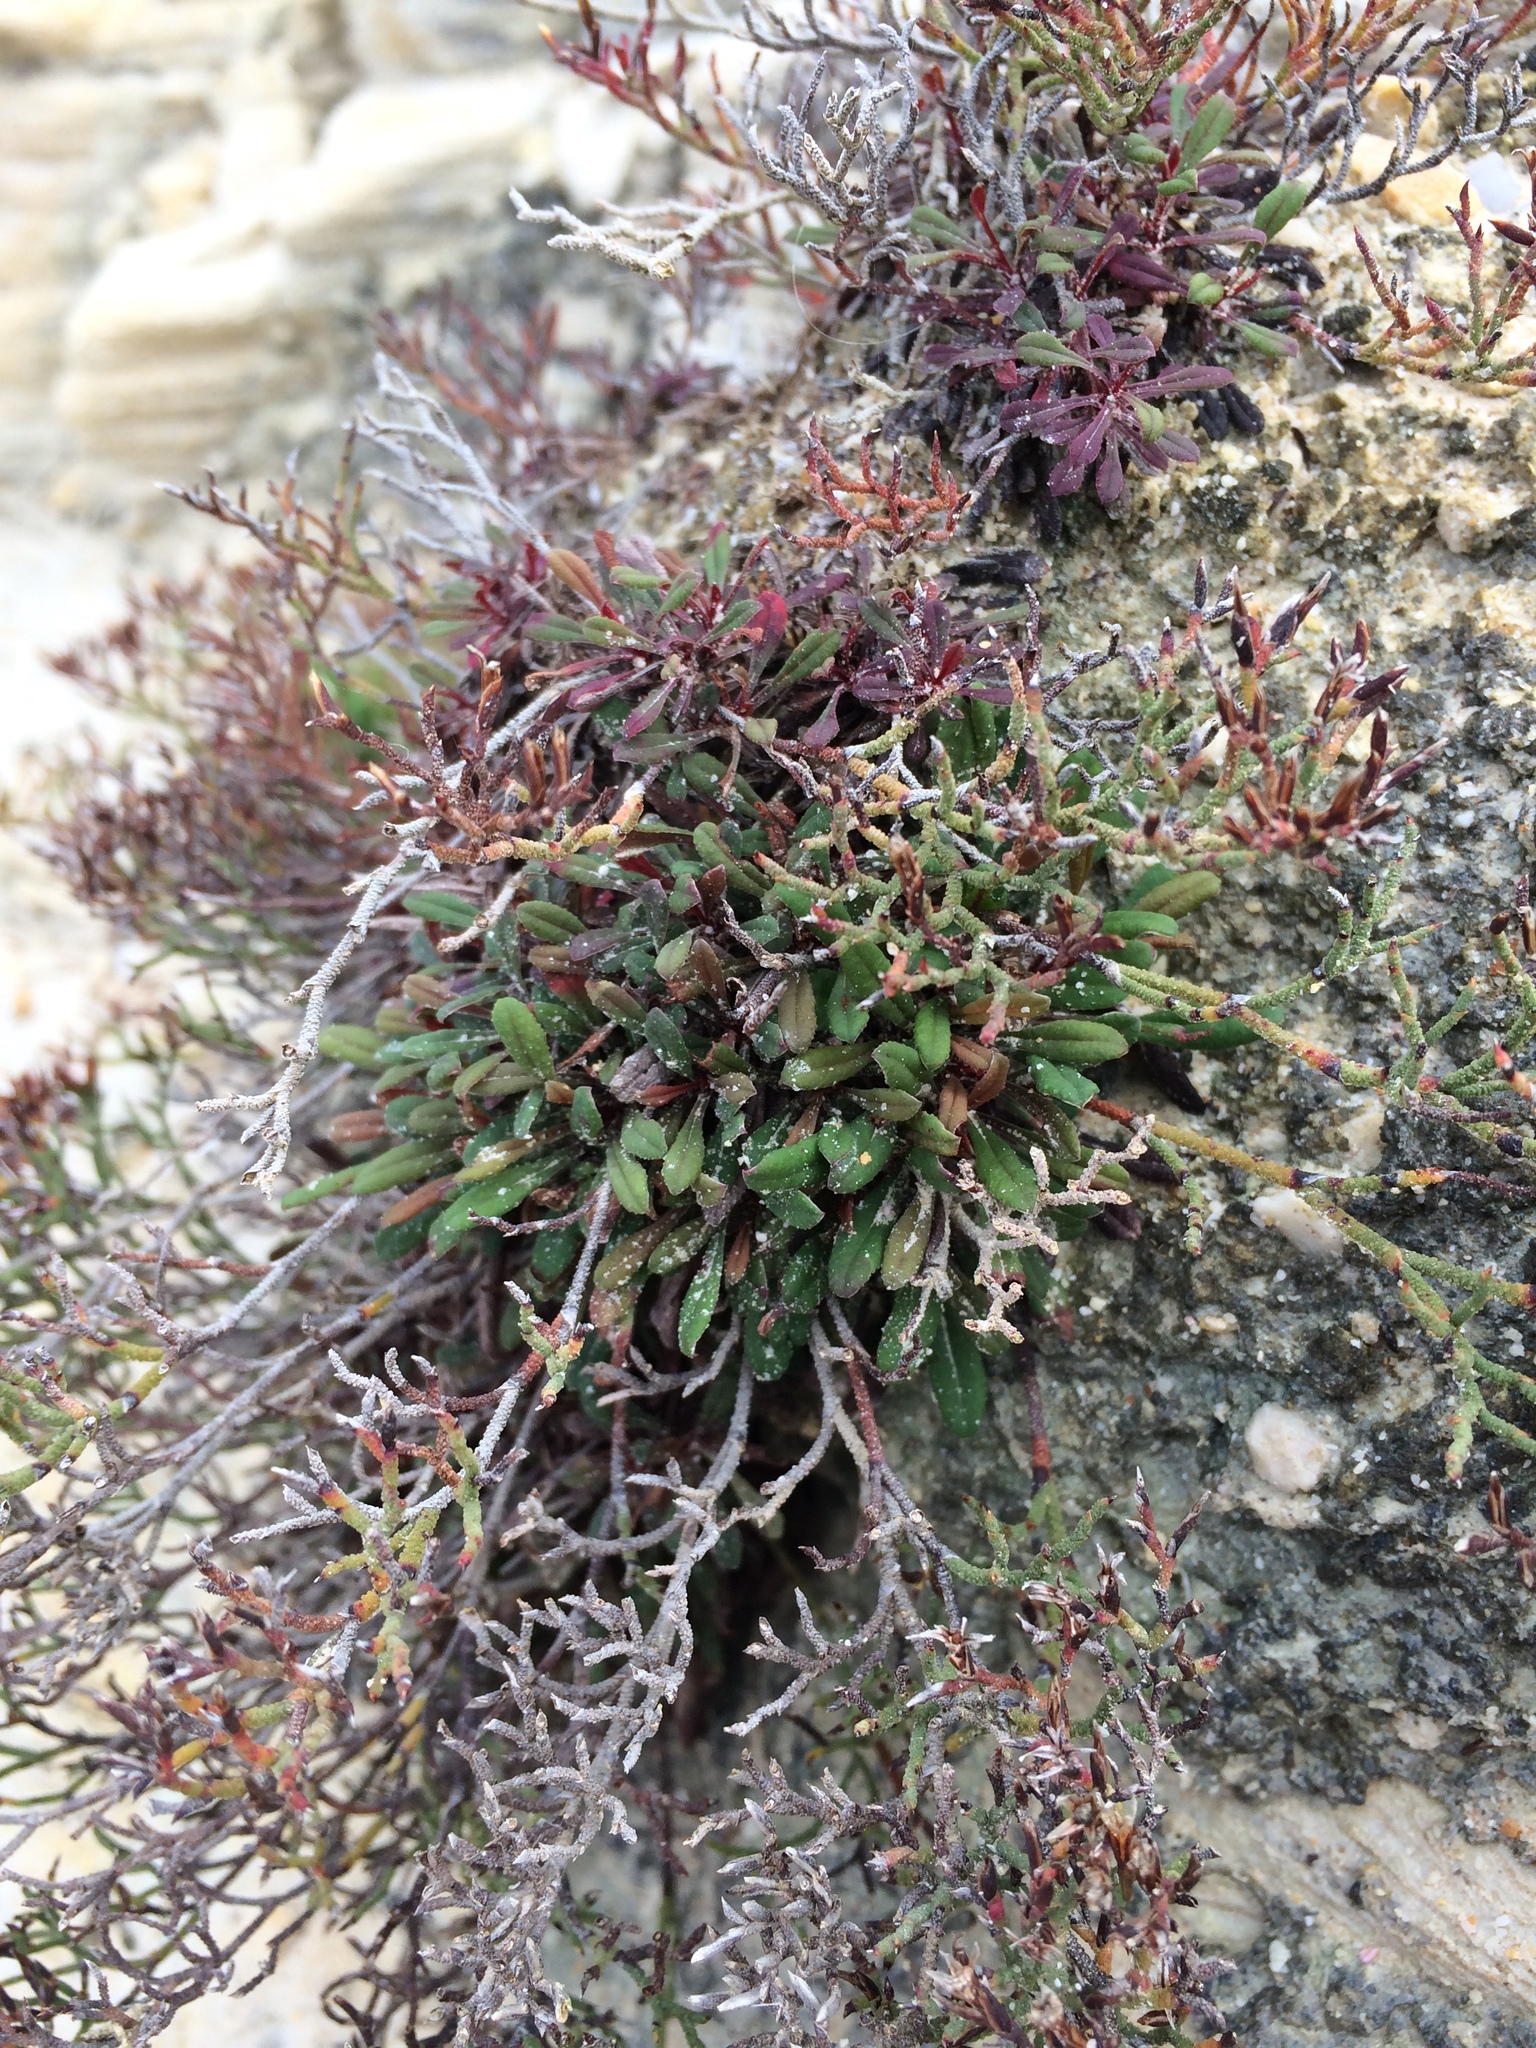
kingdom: Plantae
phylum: Tracheophyta
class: Magnoliopsida
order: Caryophyllales
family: Plumbaginaceae
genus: Limonium
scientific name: Limonium scabrum
